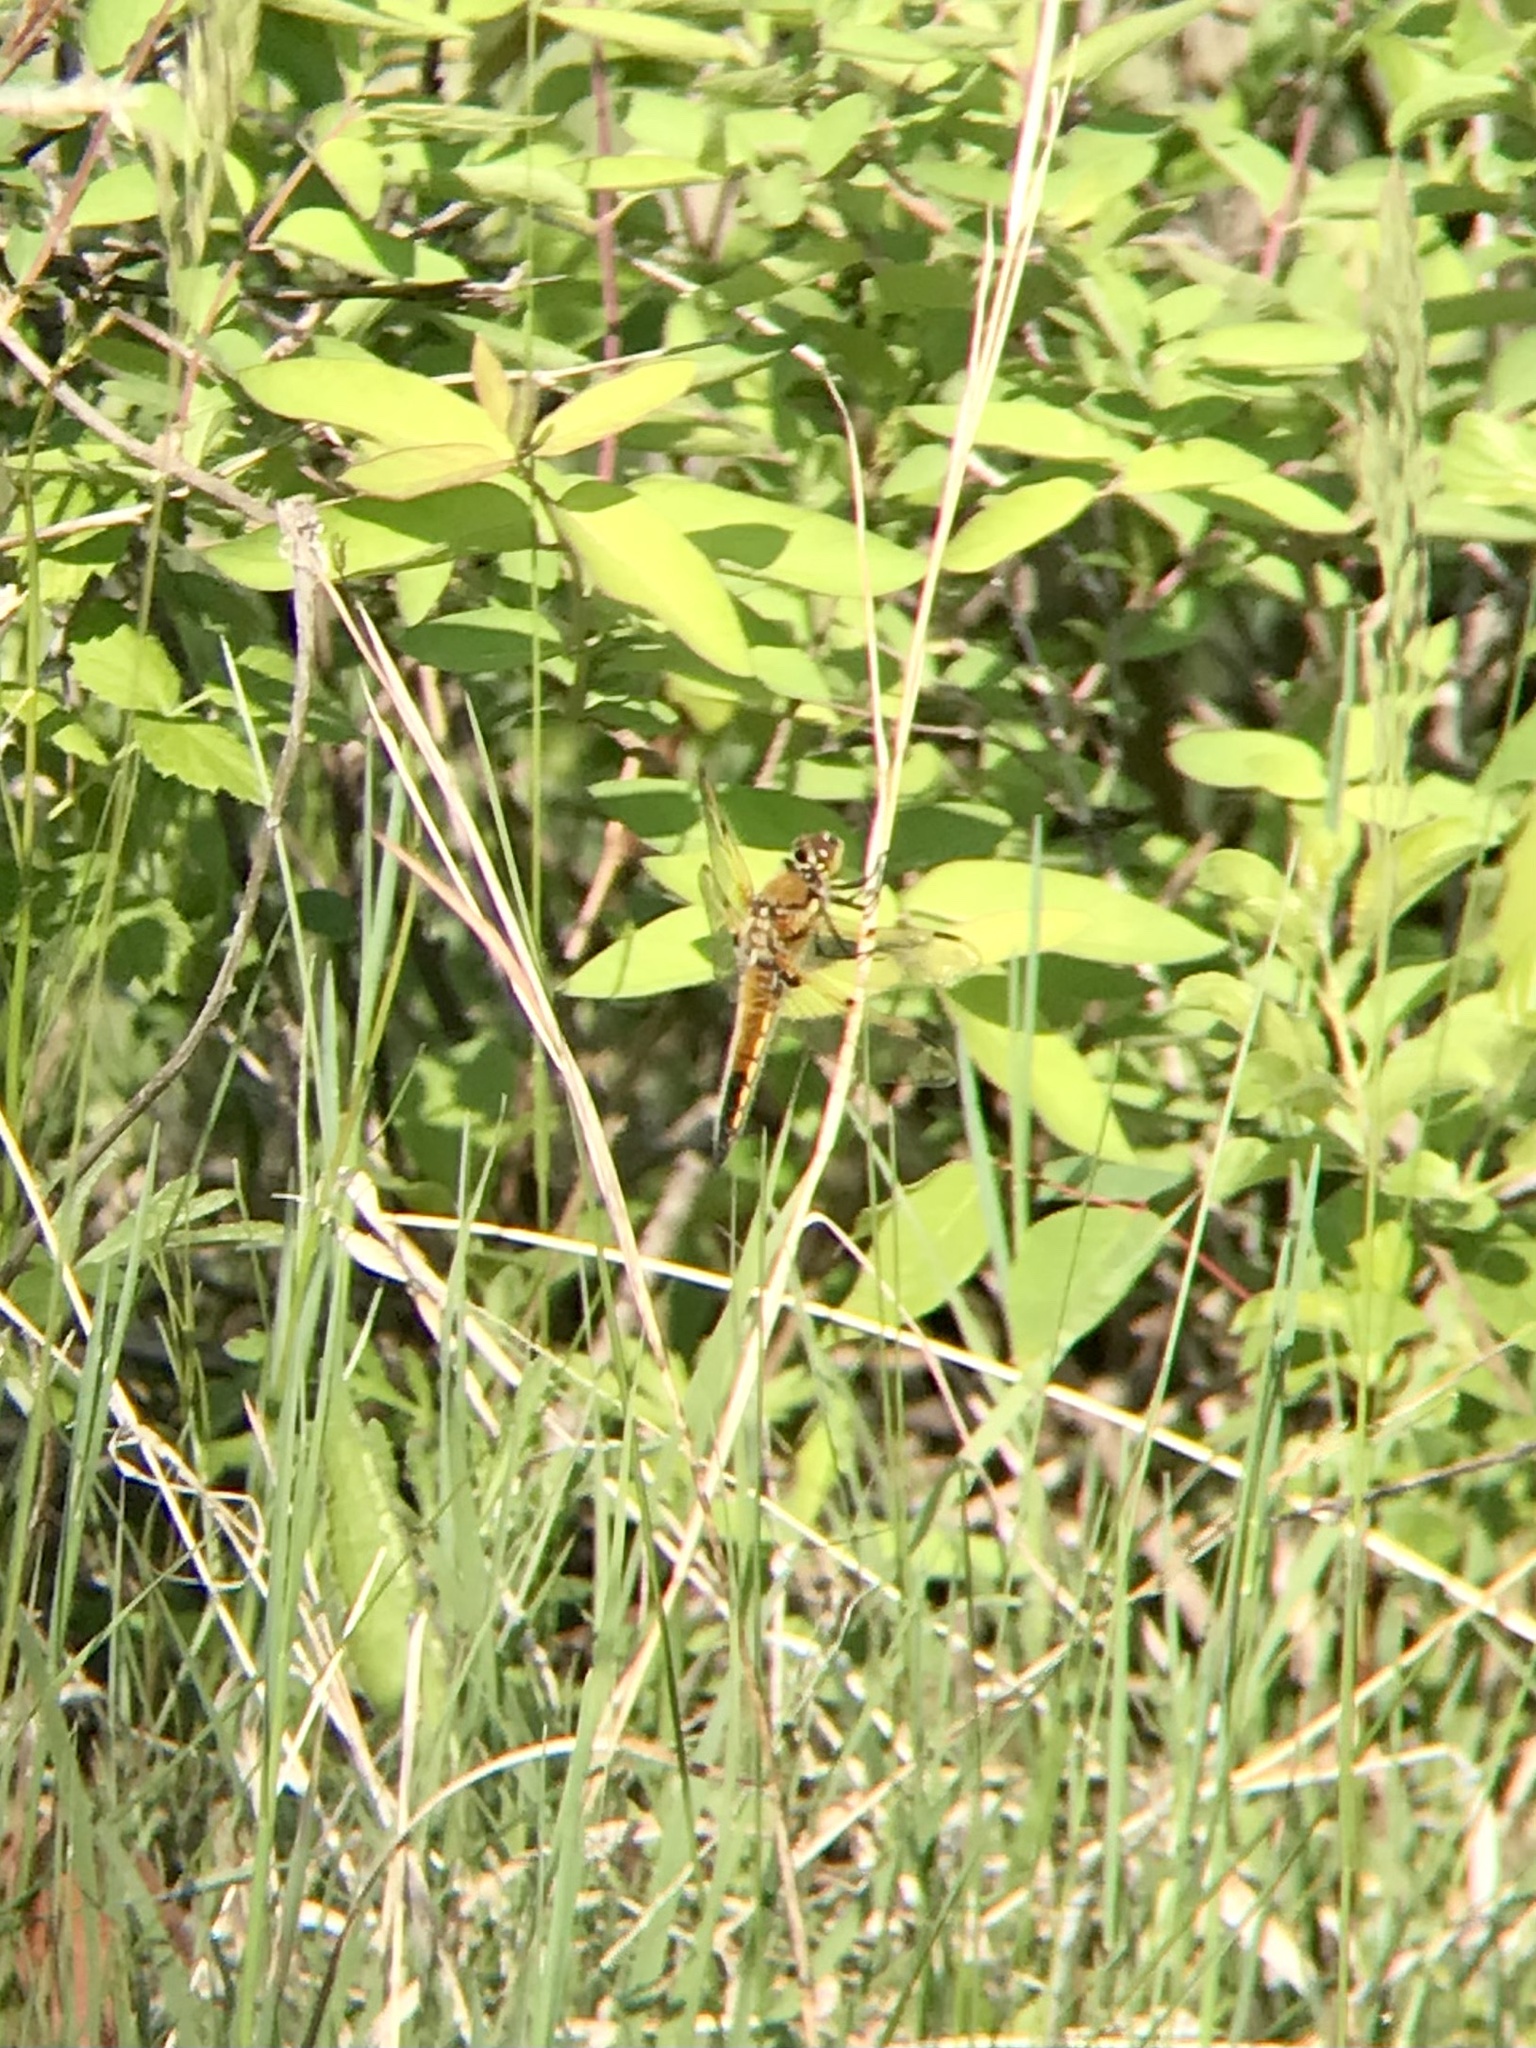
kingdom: Animalia
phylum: Arthropoda
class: Insecta
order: Odonata
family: Libellulidae
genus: Libellula
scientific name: Libellula quadrimaculata
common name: Four-spotted chaser
